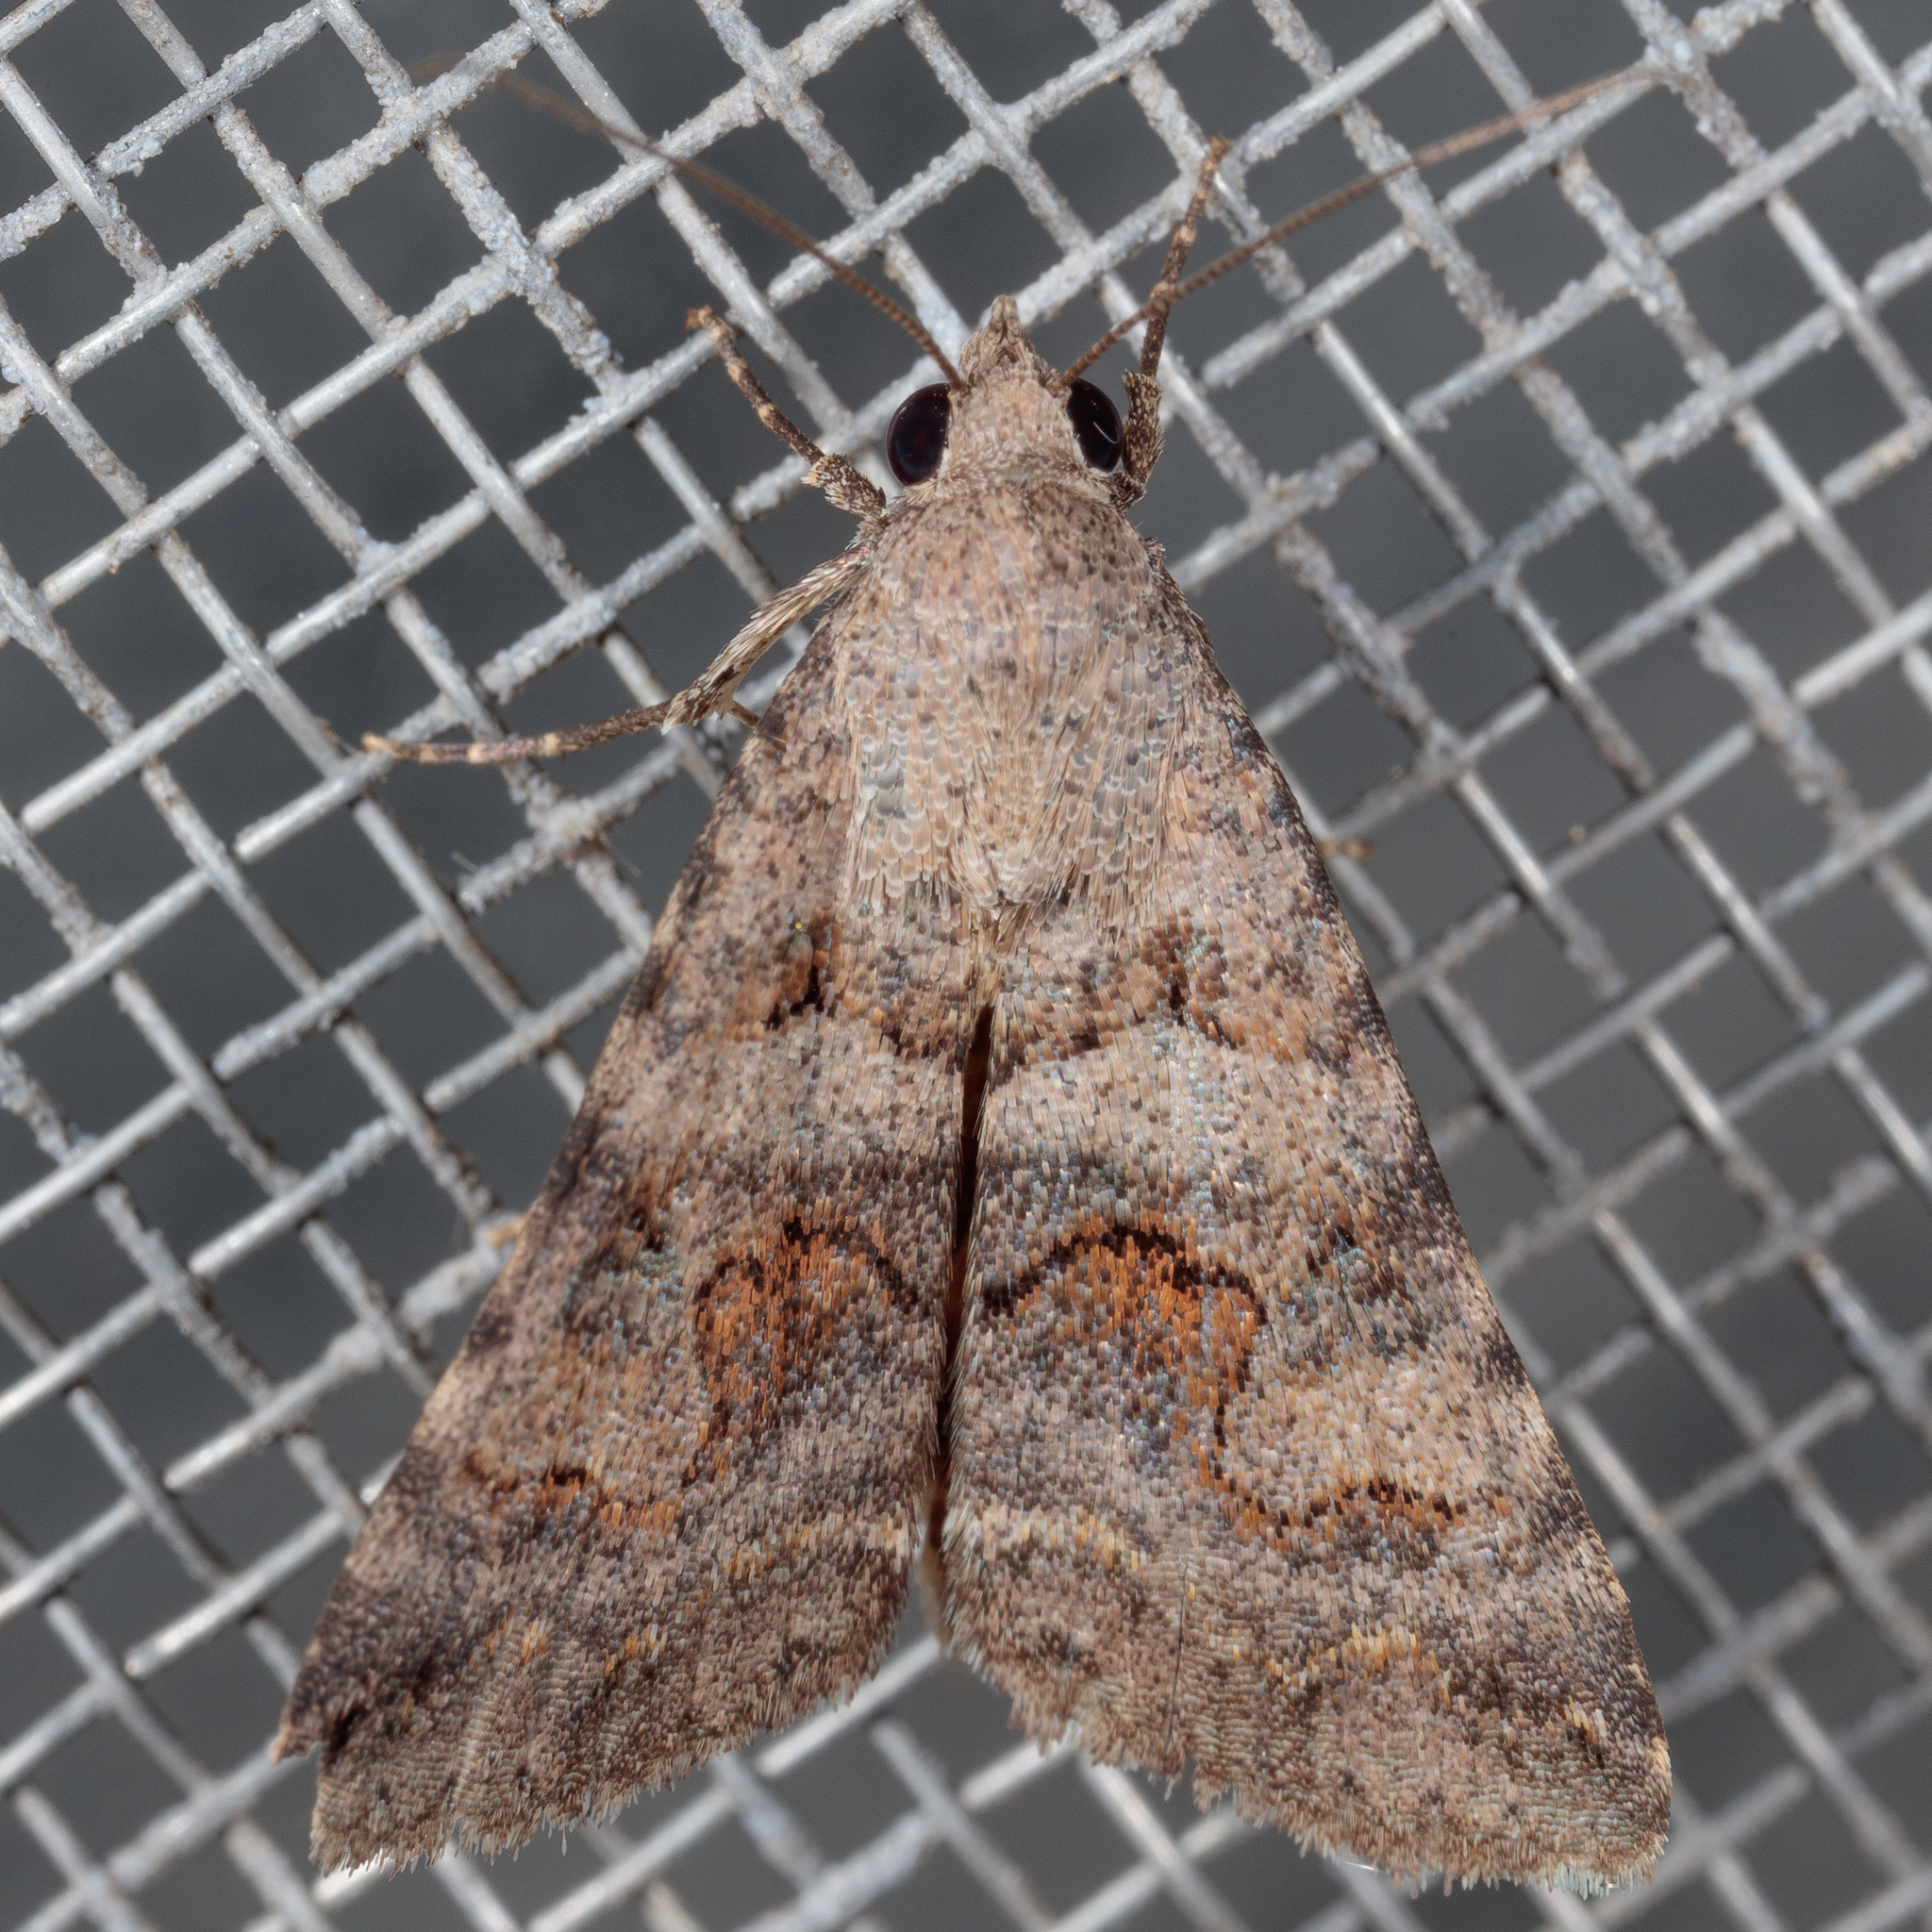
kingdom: Animalia
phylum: Arthropoda
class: Insecta
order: Lepidoptera
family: Erebidae
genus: Bulia
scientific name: Bulia
